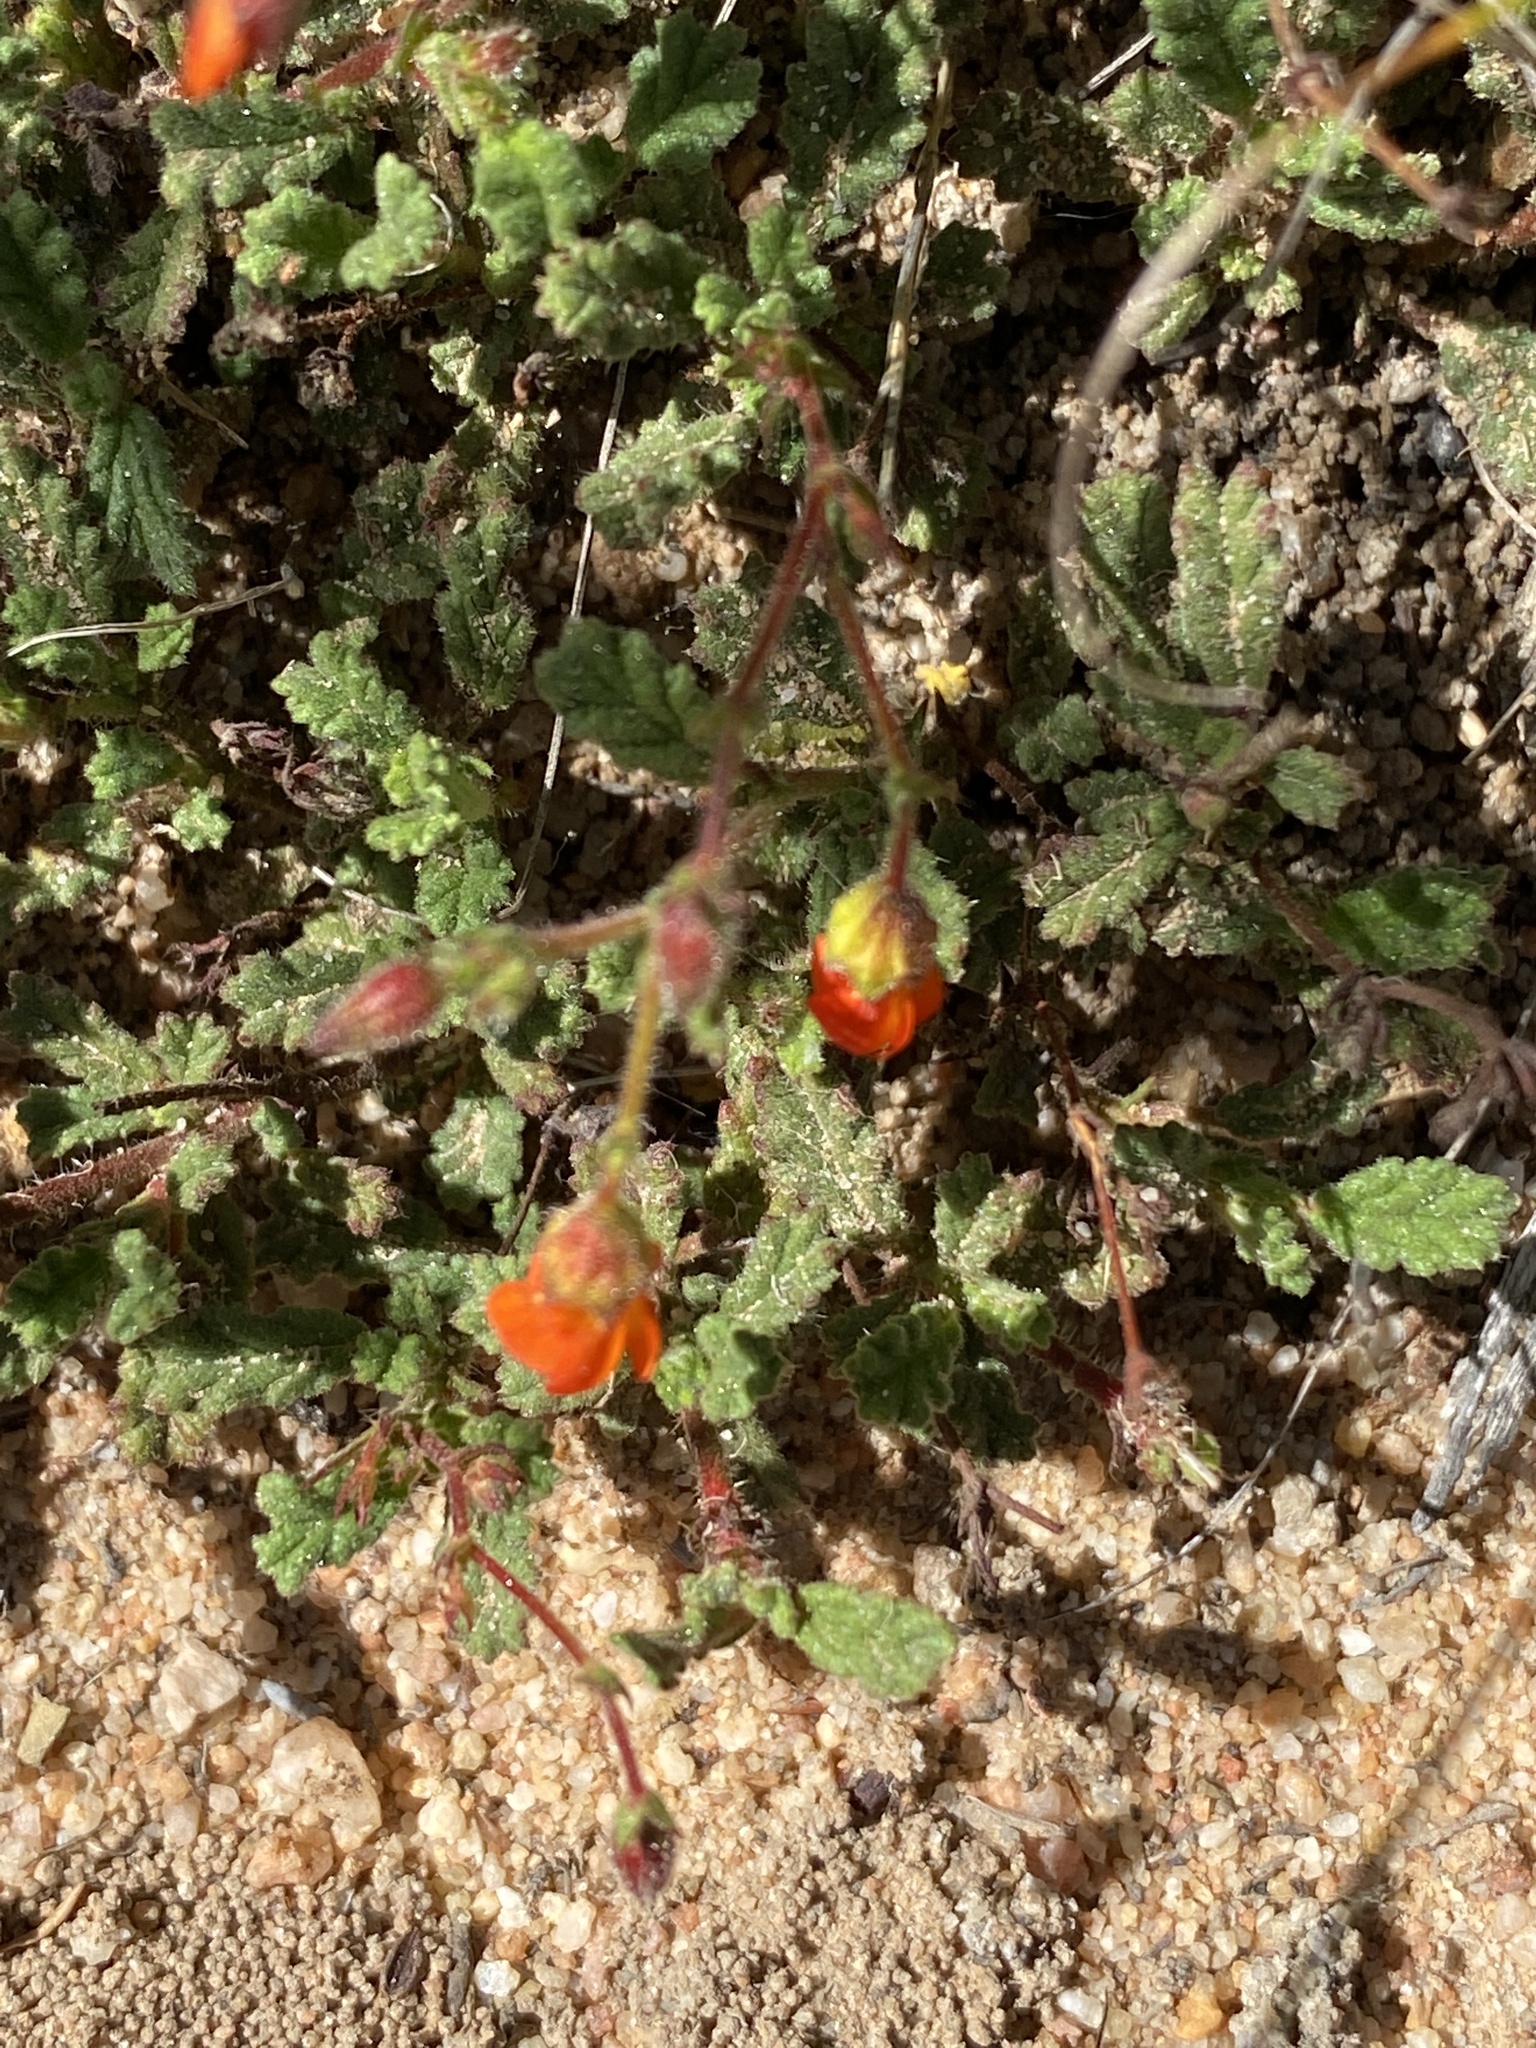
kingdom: Plantae
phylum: Tracheophyta
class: Magnoliopsida
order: Malvales
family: Malvaceae
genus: Hermannia
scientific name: Hermannia muricata
